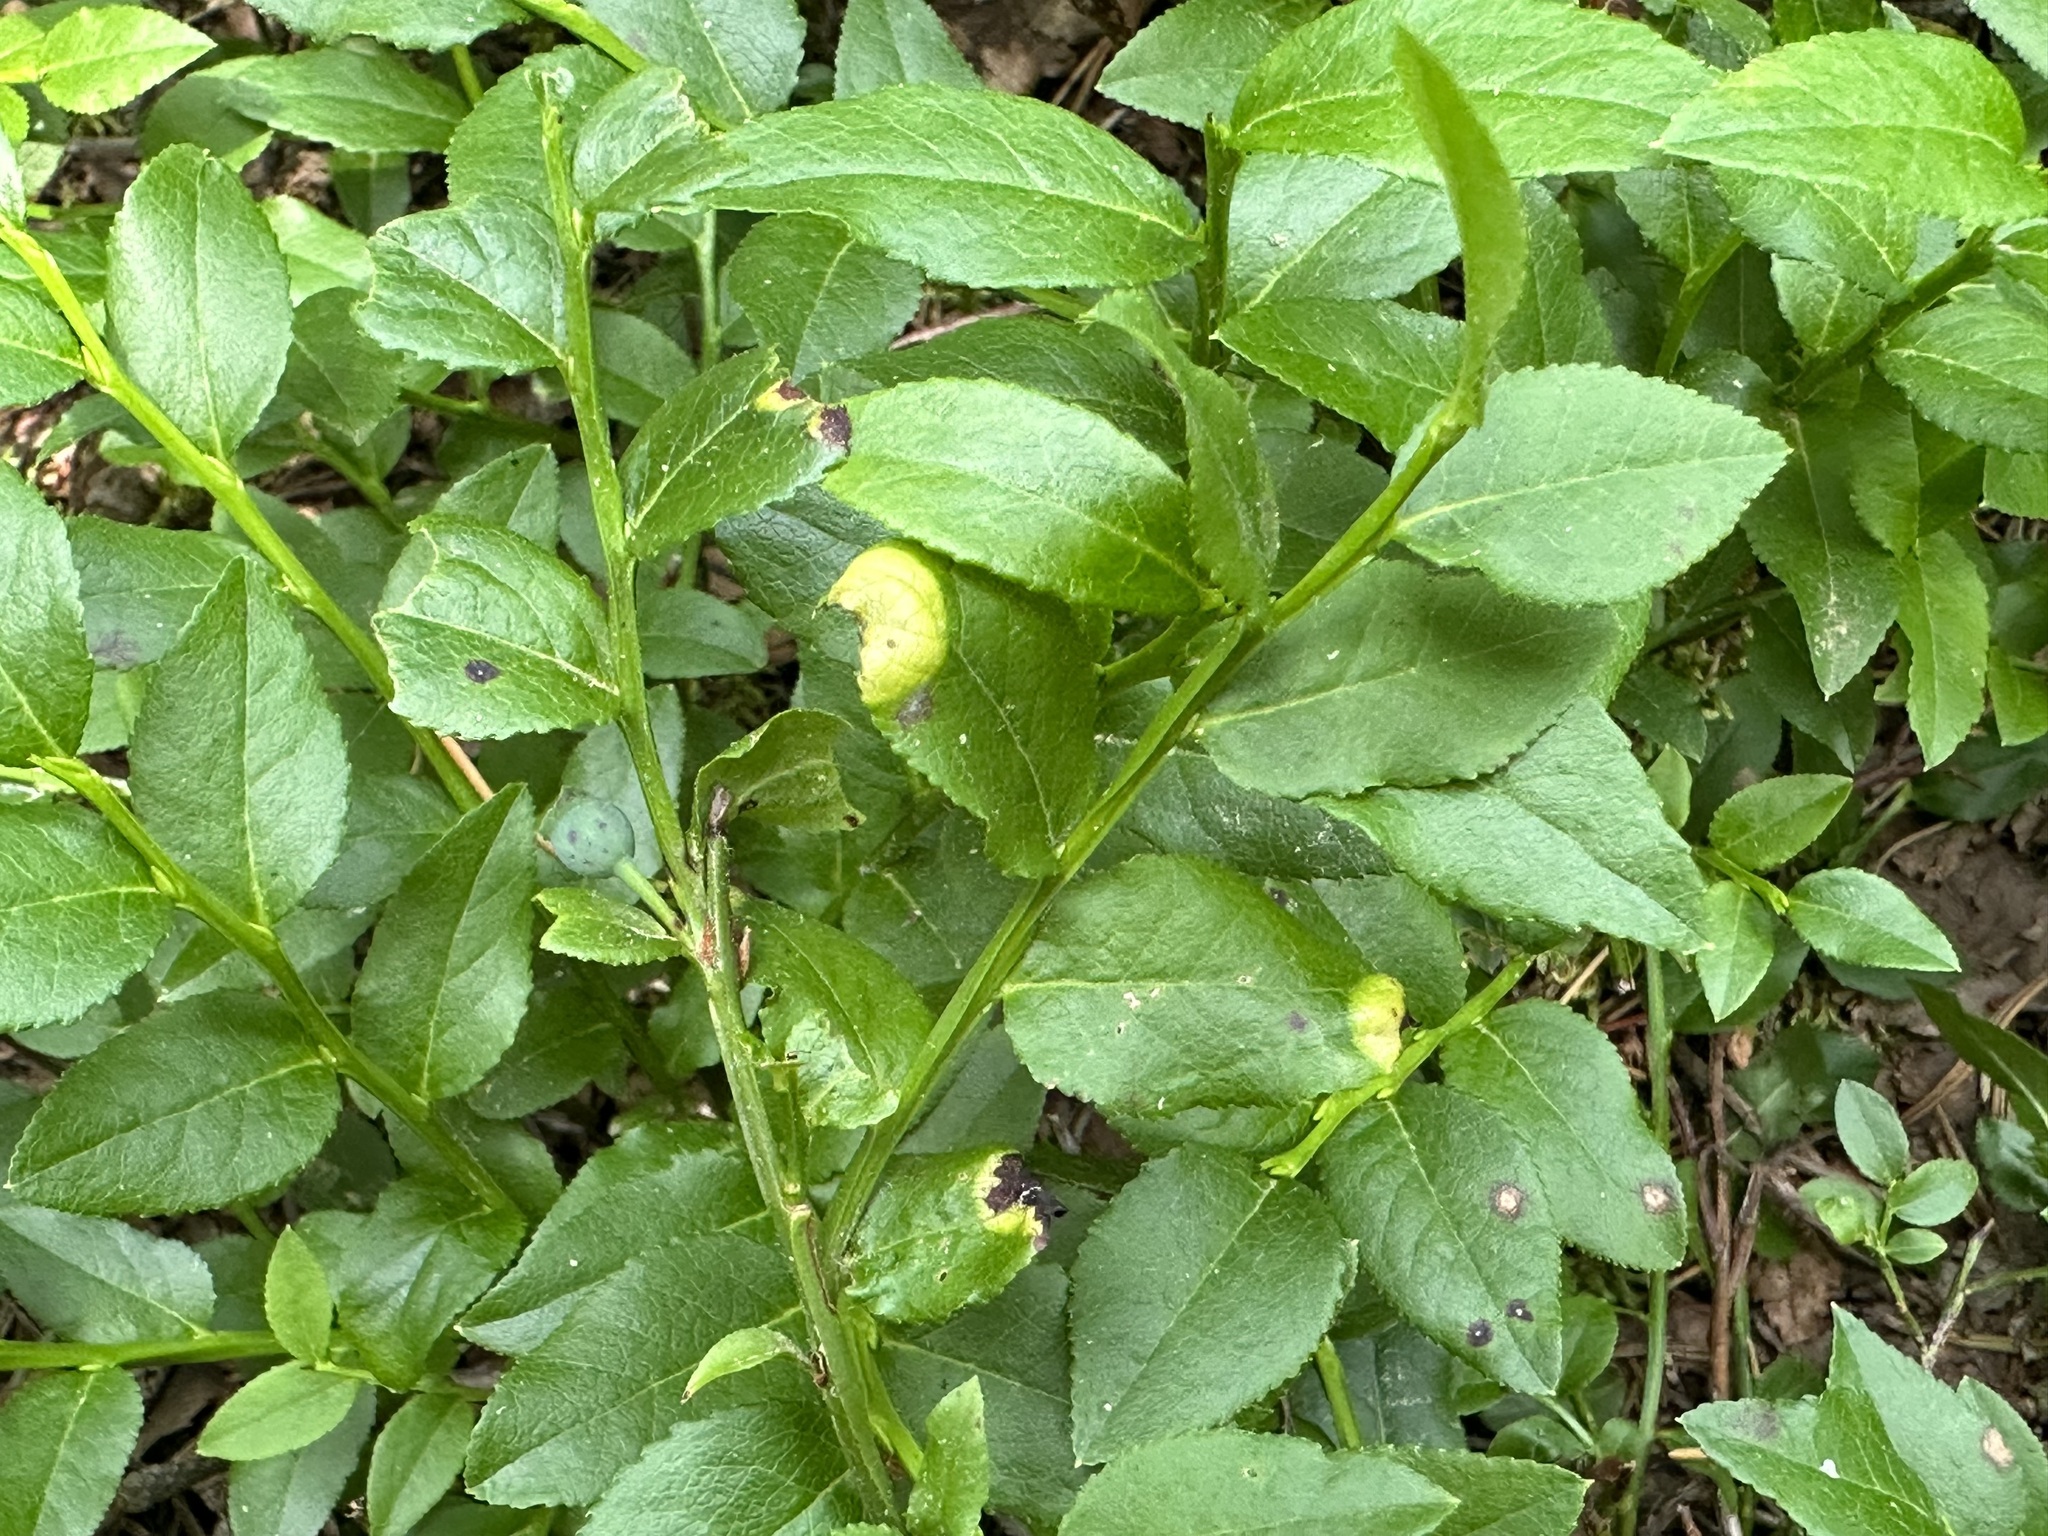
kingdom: Fungi
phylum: Basidiomycota
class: Exobasidiomycetes
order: Exobasidiales
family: Exobasidiaceae
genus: Exobasidium
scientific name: Exobasidium arescens
